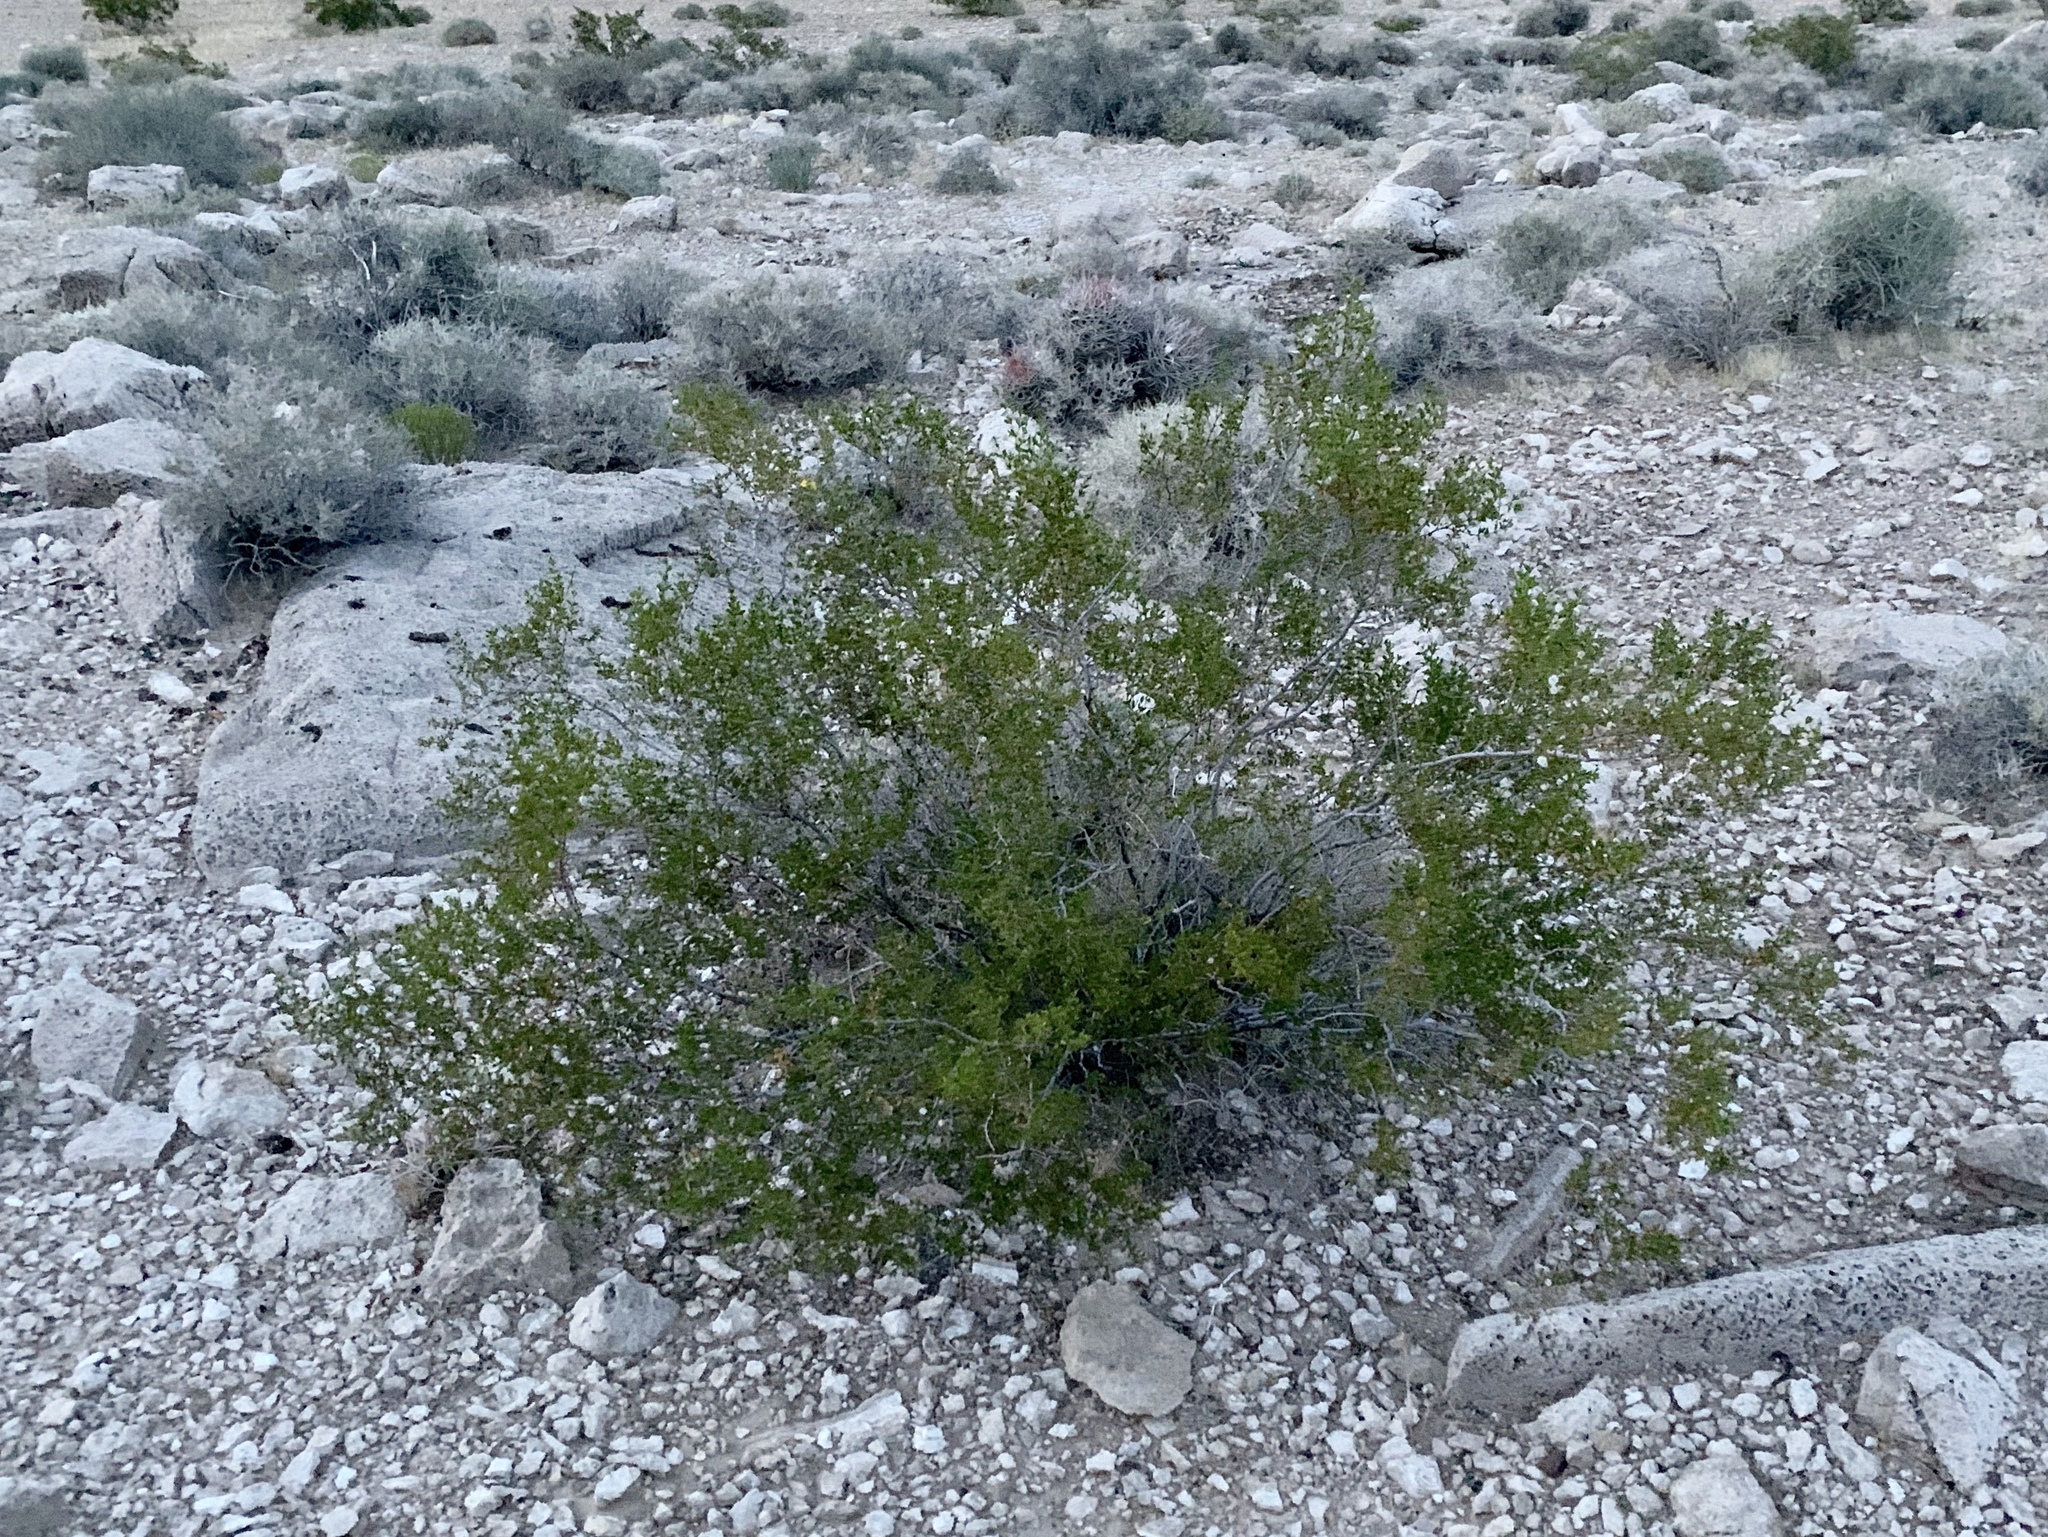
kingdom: Plantae
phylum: Tracheophyta
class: Magnoliopsida
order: Zygophyllales
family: Zygophyllaceae
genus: Larrea
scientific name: Larrea tridentata
